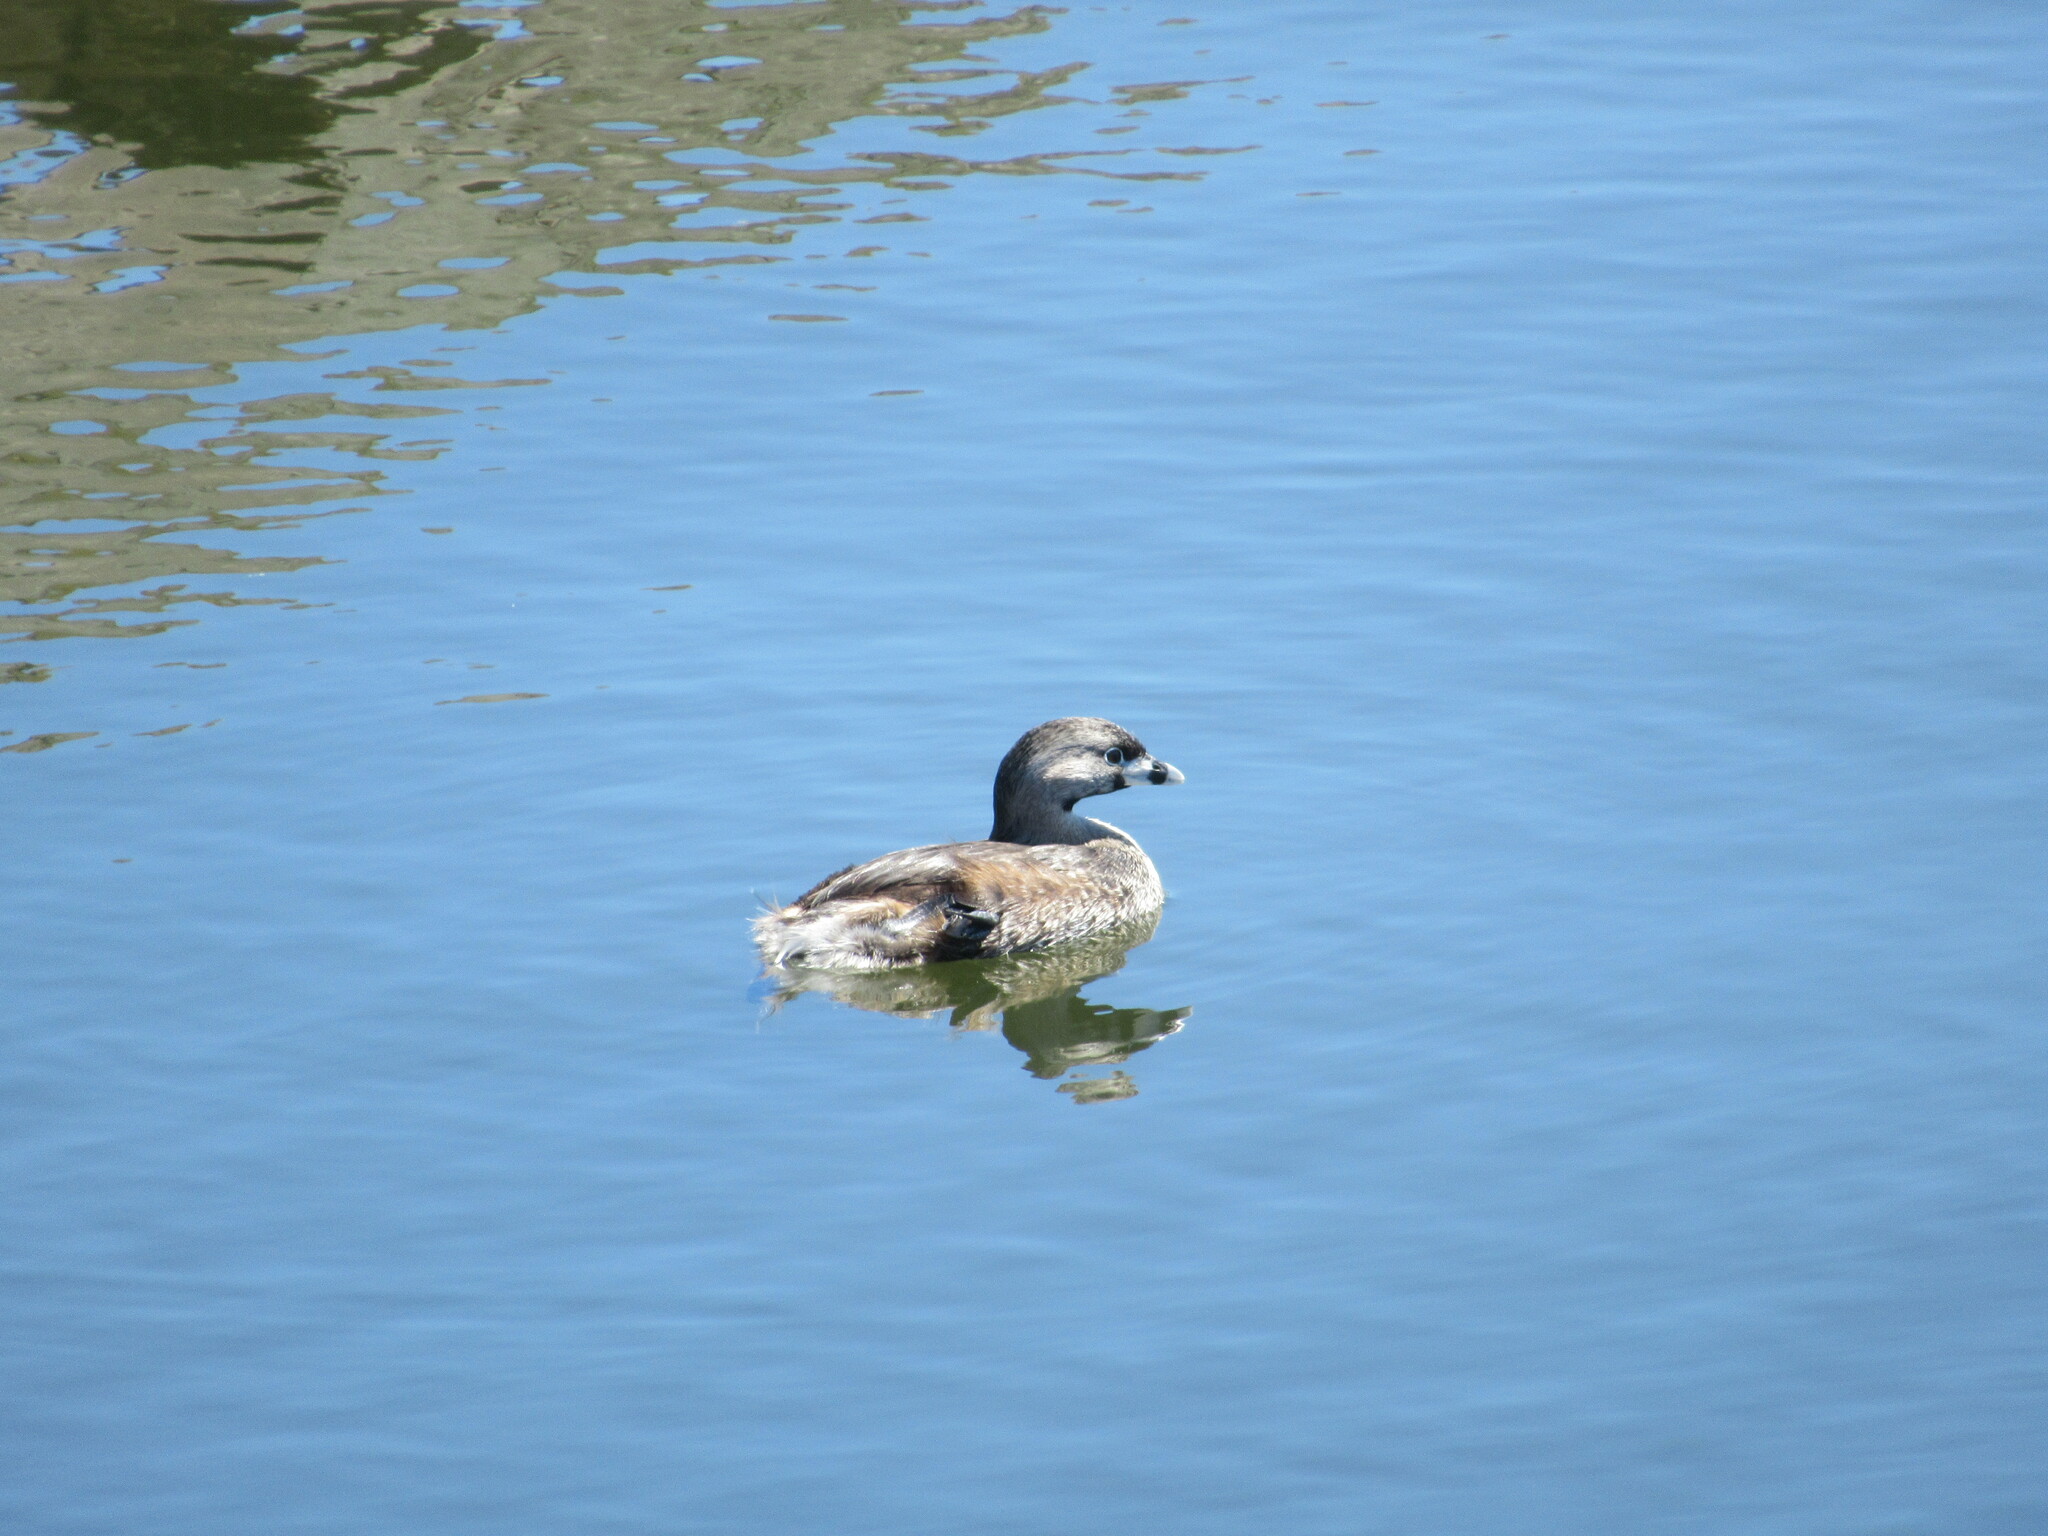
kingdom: Animalia
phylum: Chordata
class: Aves
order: Podicipediformes
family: Podicipedidae
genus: Podilymbus
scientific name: Podilymbus podiceps
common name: Pied-billed grebe
